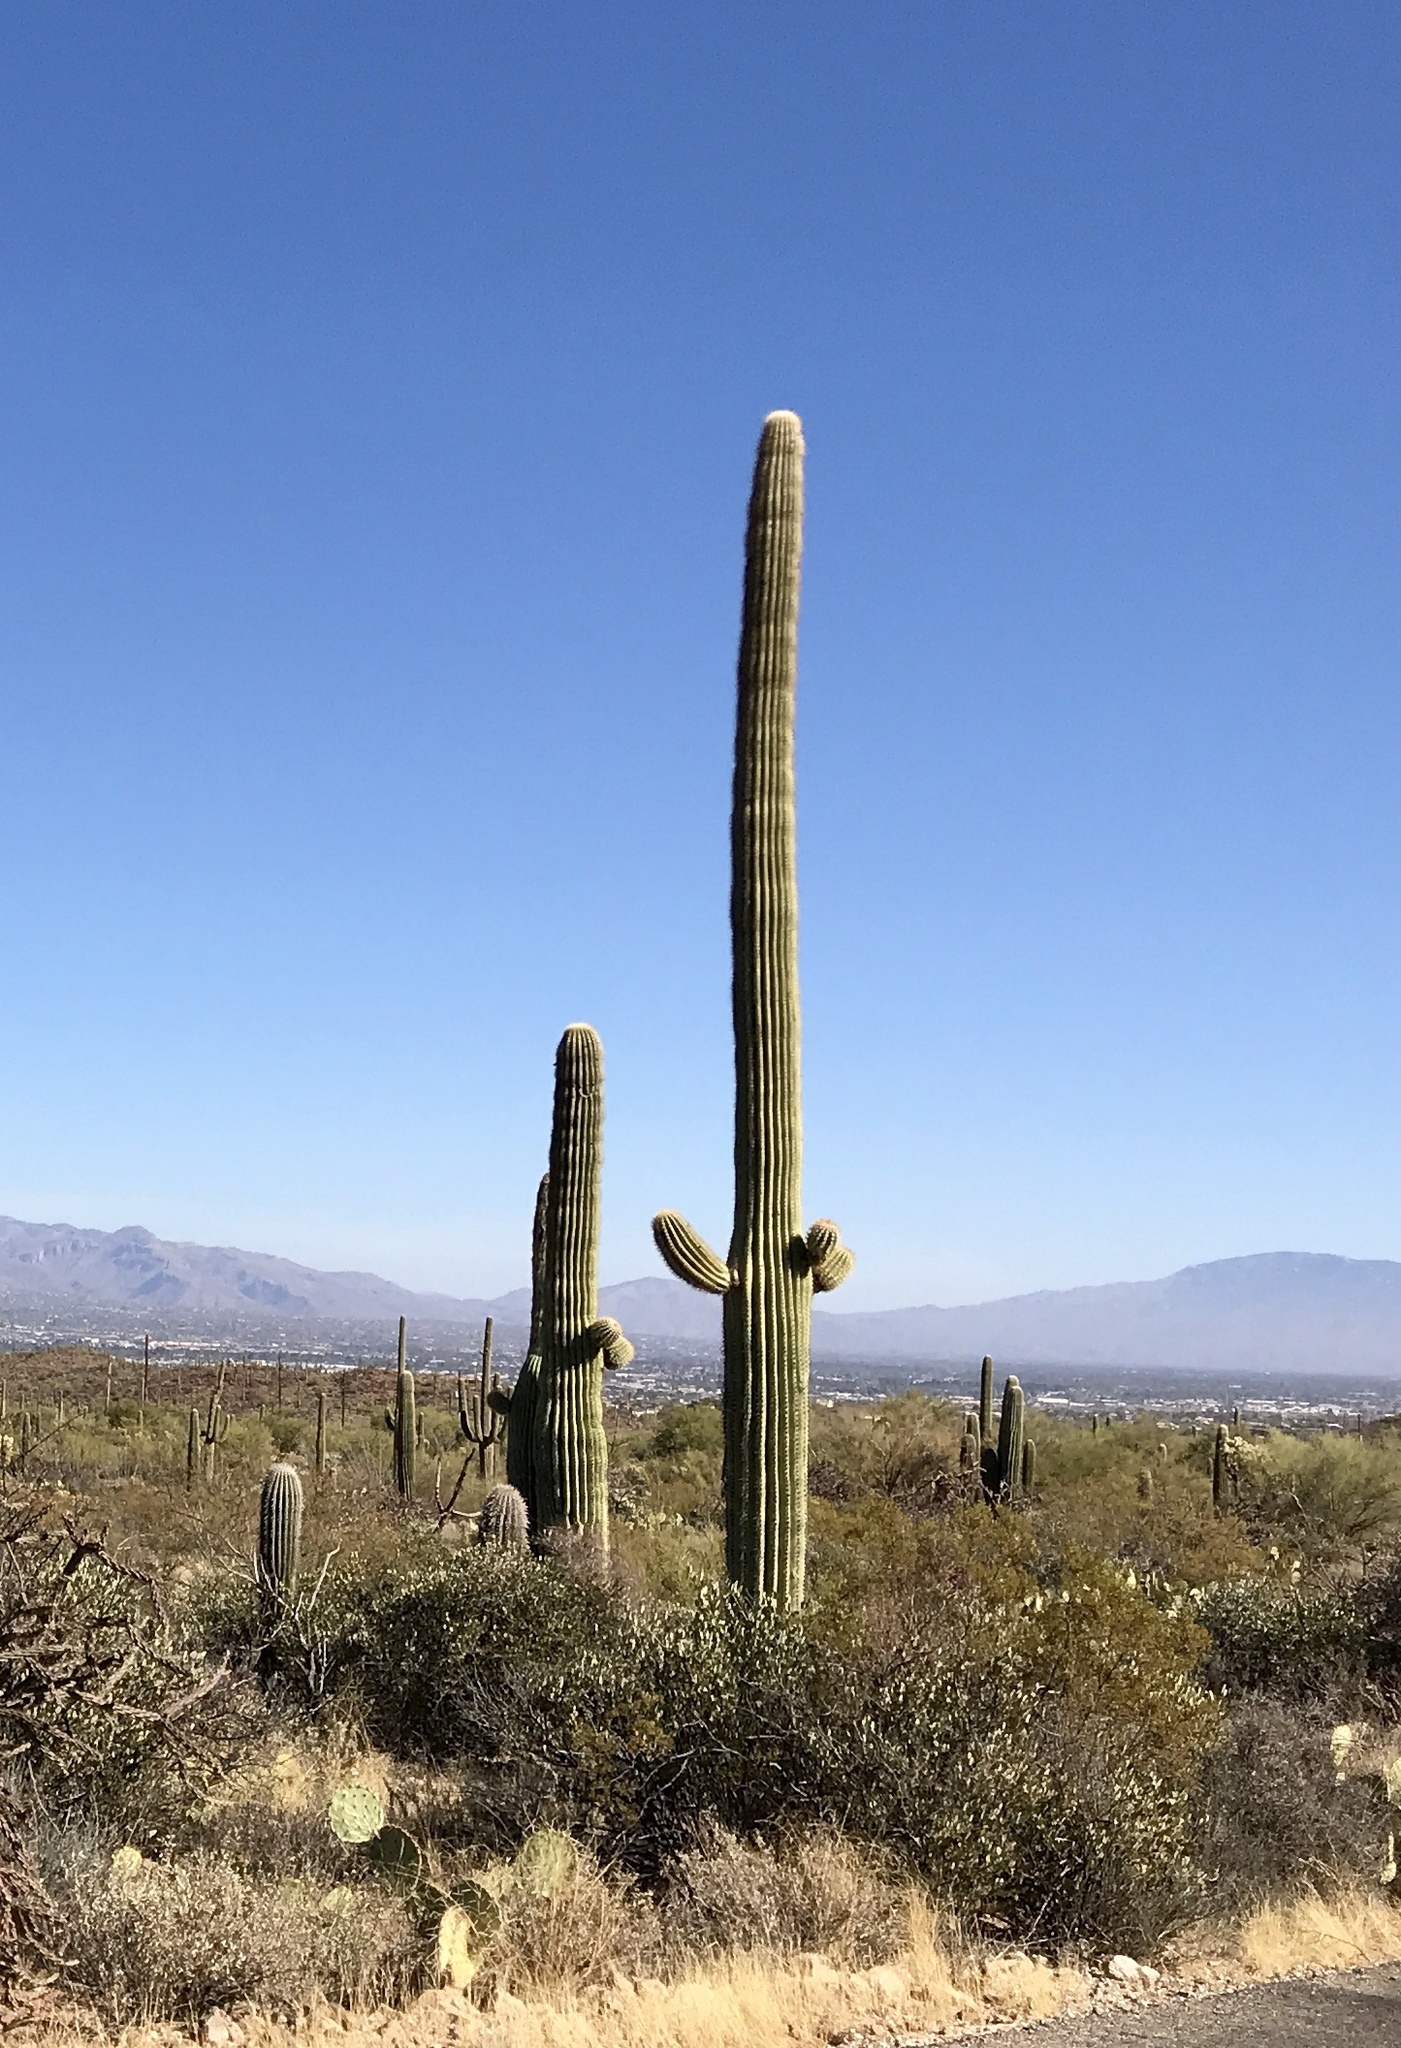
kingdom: Plantae
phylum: Tracheophyta
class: Magnoliopsida
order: Caryophyllales
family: Cactaceae
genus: Carnegiea
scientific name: Carnegiea gigantea
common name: Saguaro
